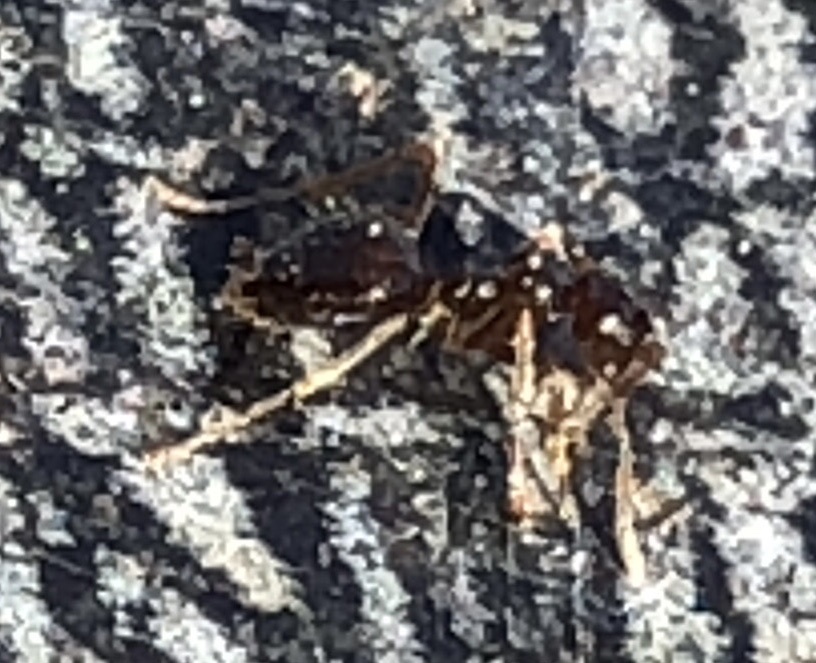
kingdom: Animalia
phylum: Arthropoda
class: Insecta
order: Hymenoptera
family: Formicidae
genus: Prenolepis
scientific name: Prenolepis imparis
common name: Small honey ant
